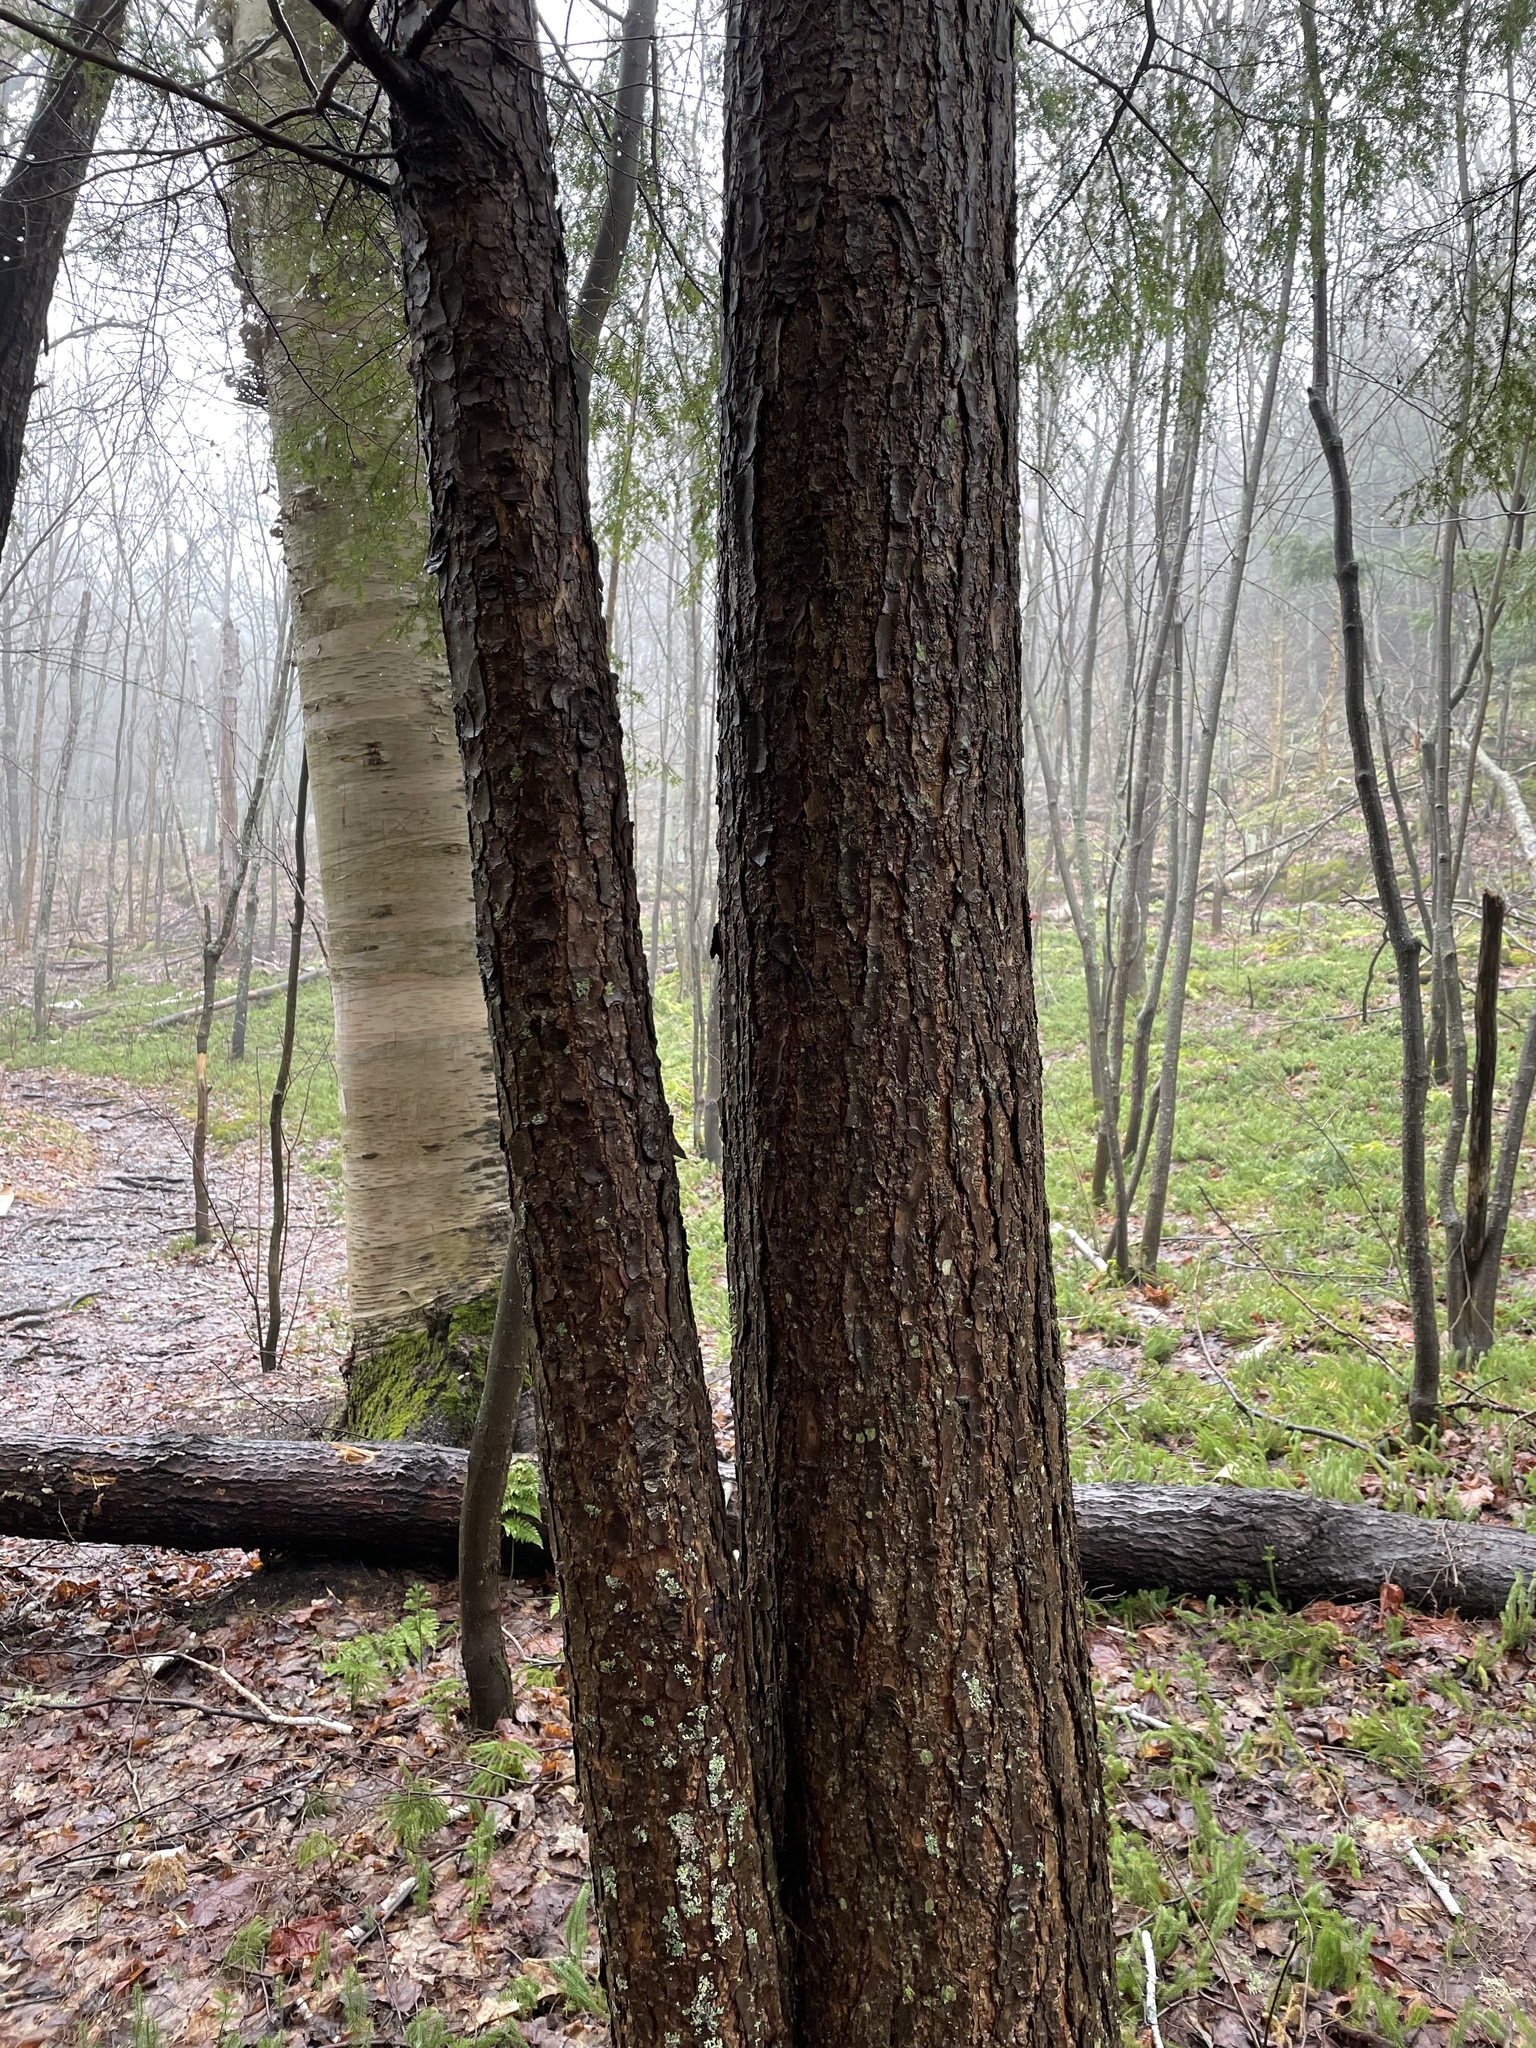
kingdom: Plantae
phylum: Tracheophyta
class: Pinopsida
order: Pinales
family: Pinaceae
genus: Tsuga
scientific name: Tsuga canadensis
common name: Eastern hemlock
